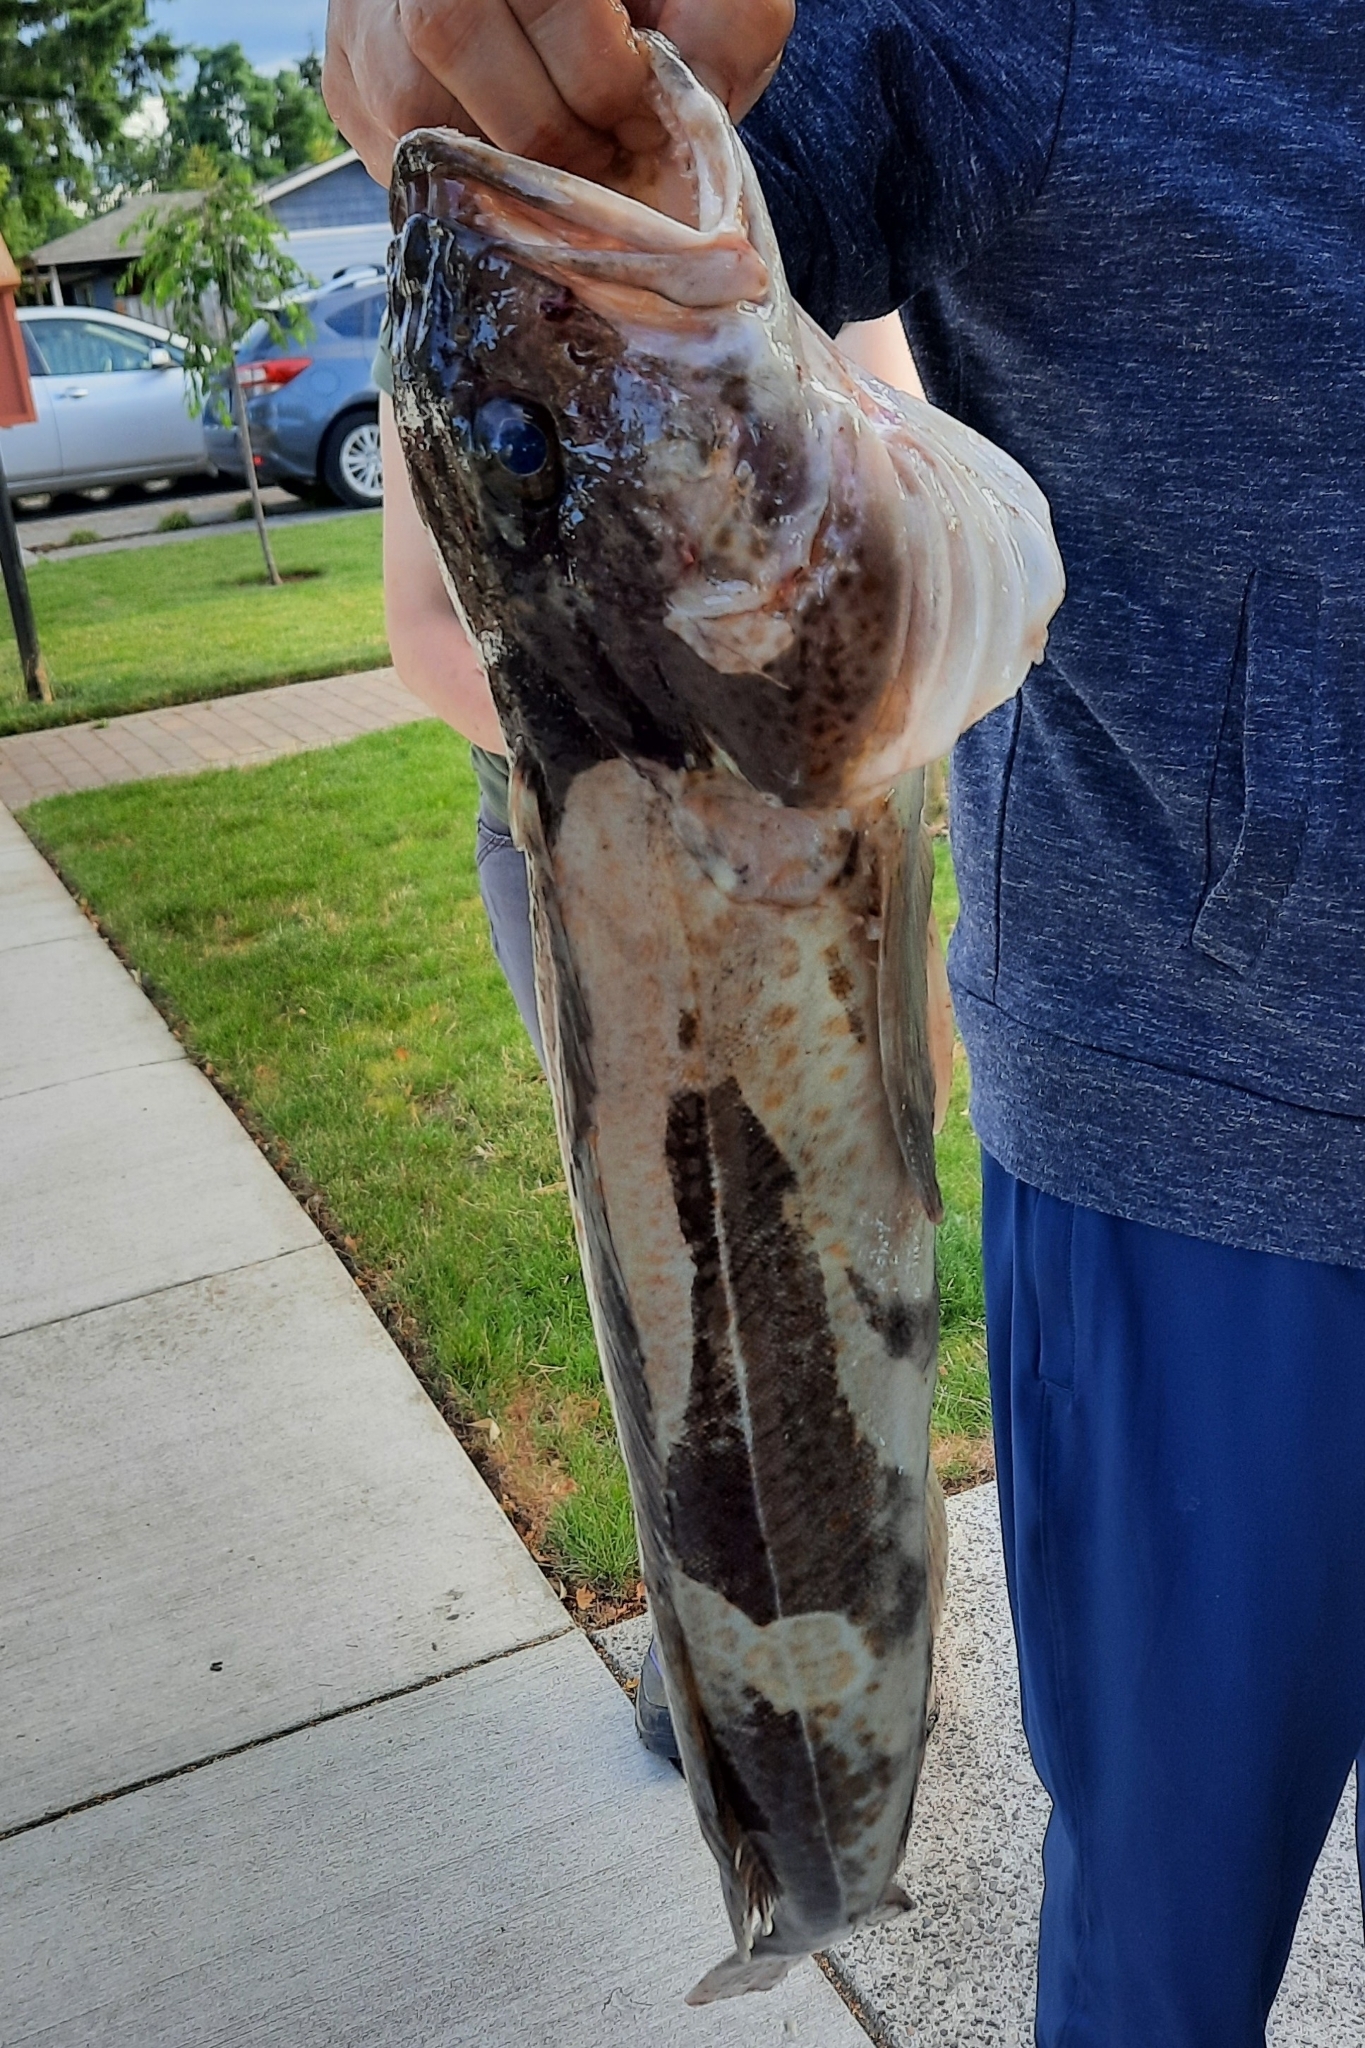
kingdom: Animalia
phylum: Chordata
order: Scorpaeniformes
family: Hexagrammidae
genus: Ophiodon
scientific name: Ophiodon elongatus
